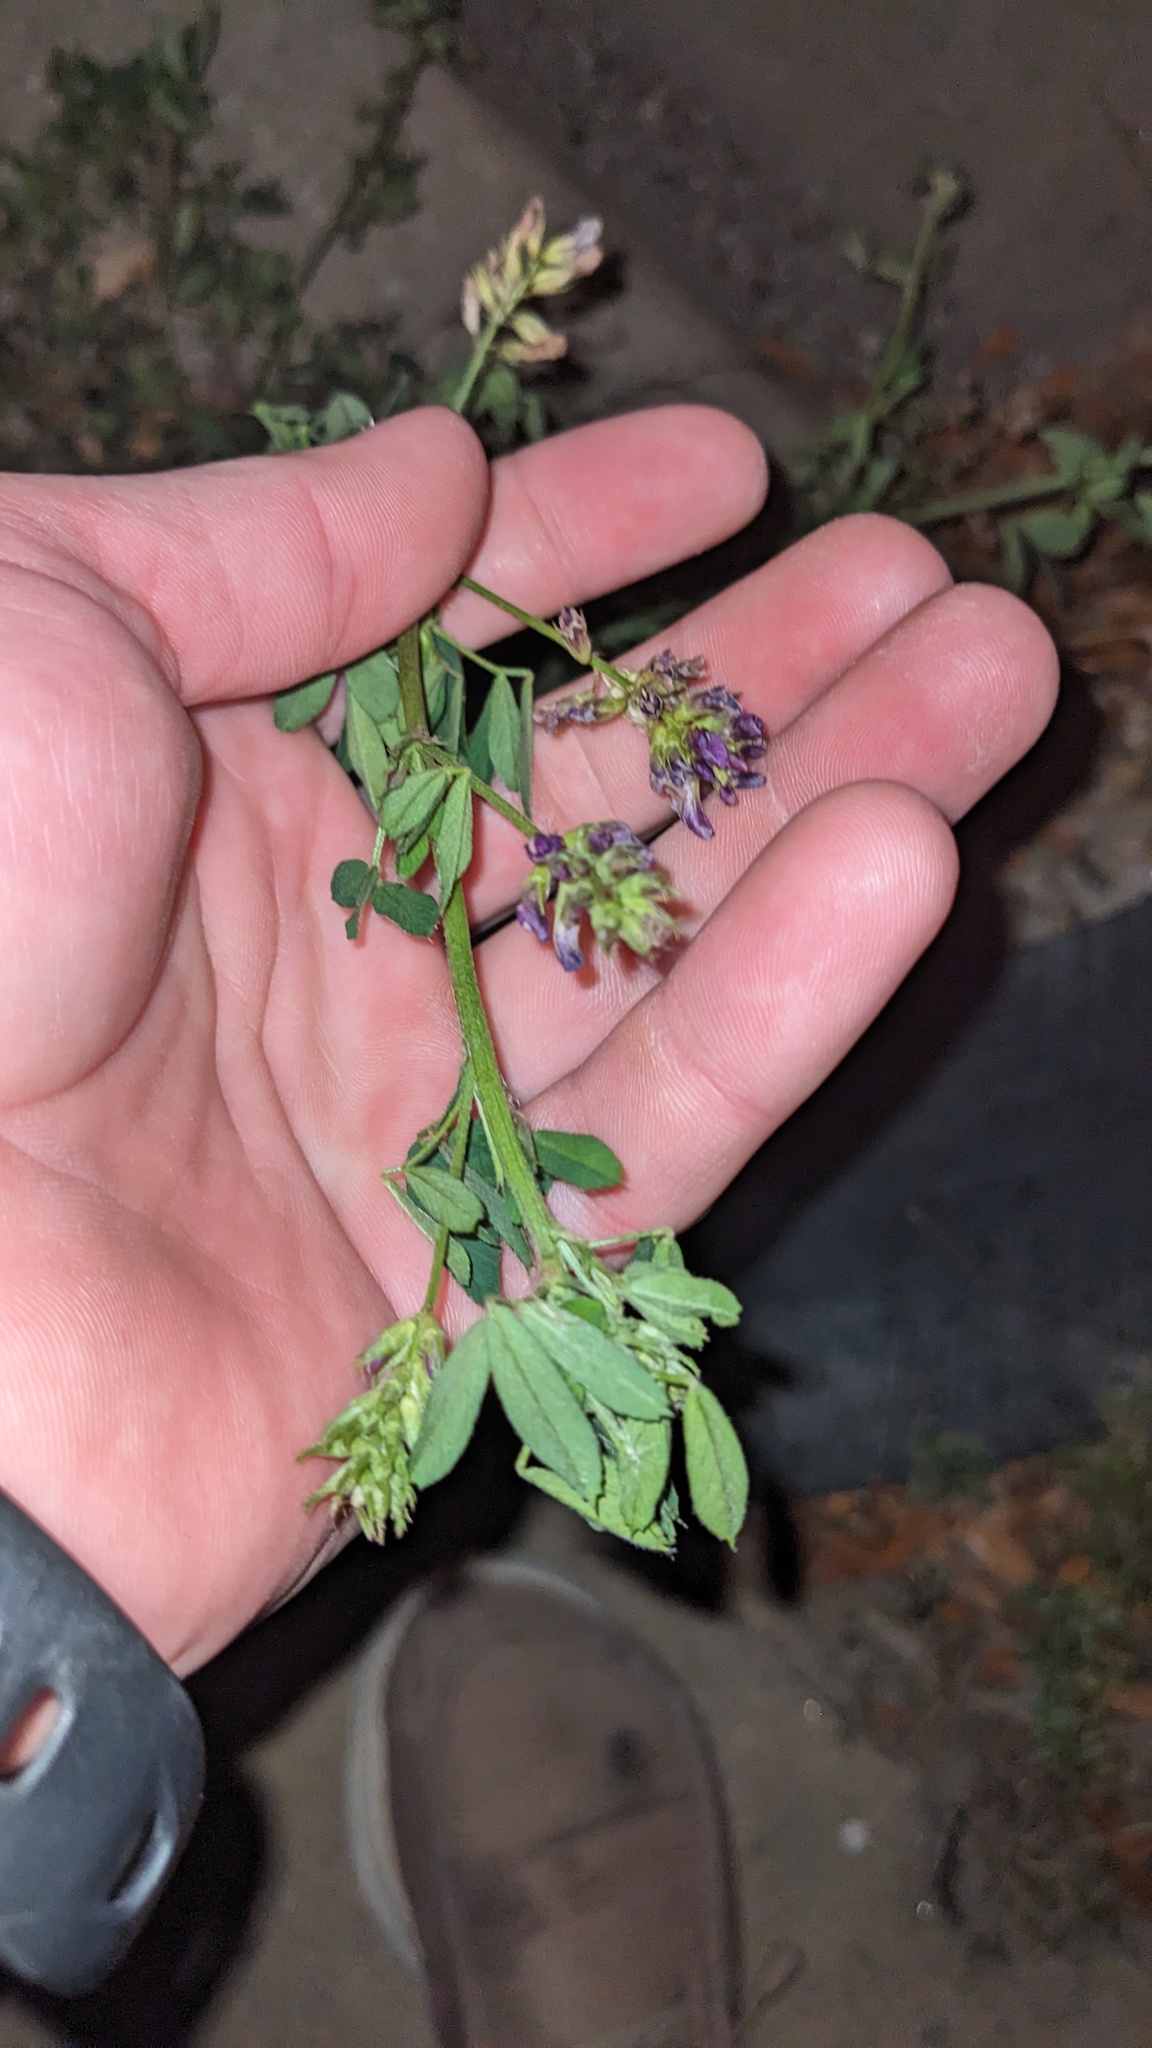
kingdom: Plantae
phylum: Tracheophyta
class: Magnoliopsida
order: Fabales
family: Fabaceae
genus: Medicago
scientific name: Medicago sativa
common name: Alfalfa
